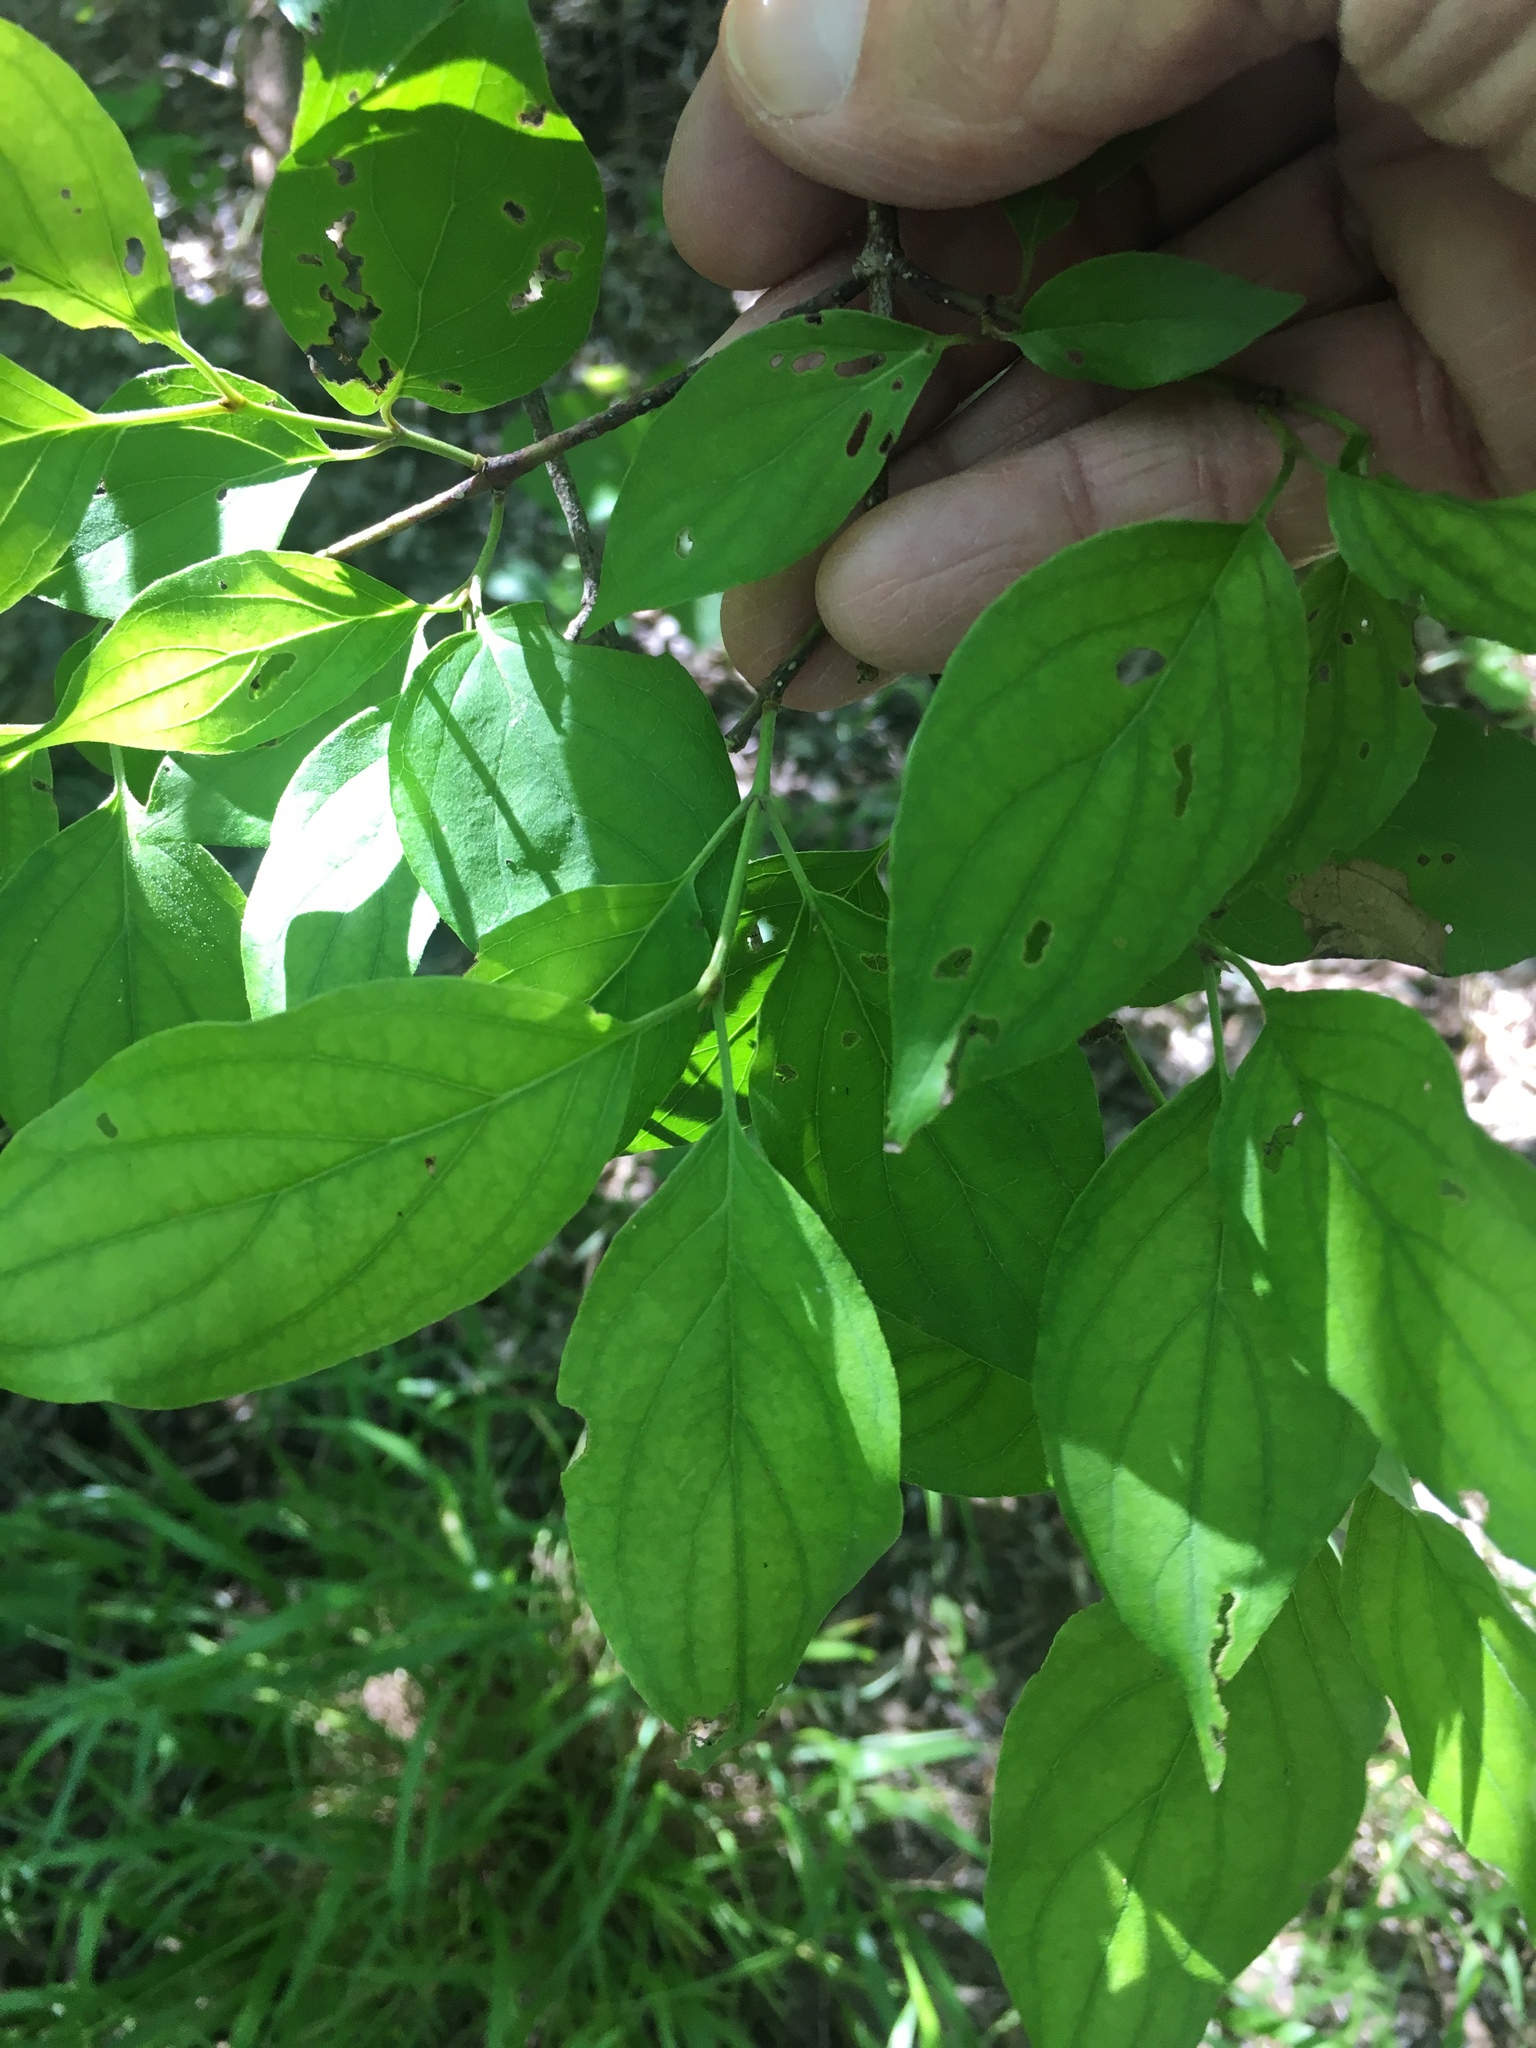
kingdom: Plantae
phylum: Tracheophyta
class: Magnoliopsida
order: Cornales
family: Cornaceae
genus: Cornus
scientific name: Cornus drummondii
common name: Rough-leaf dogwood
